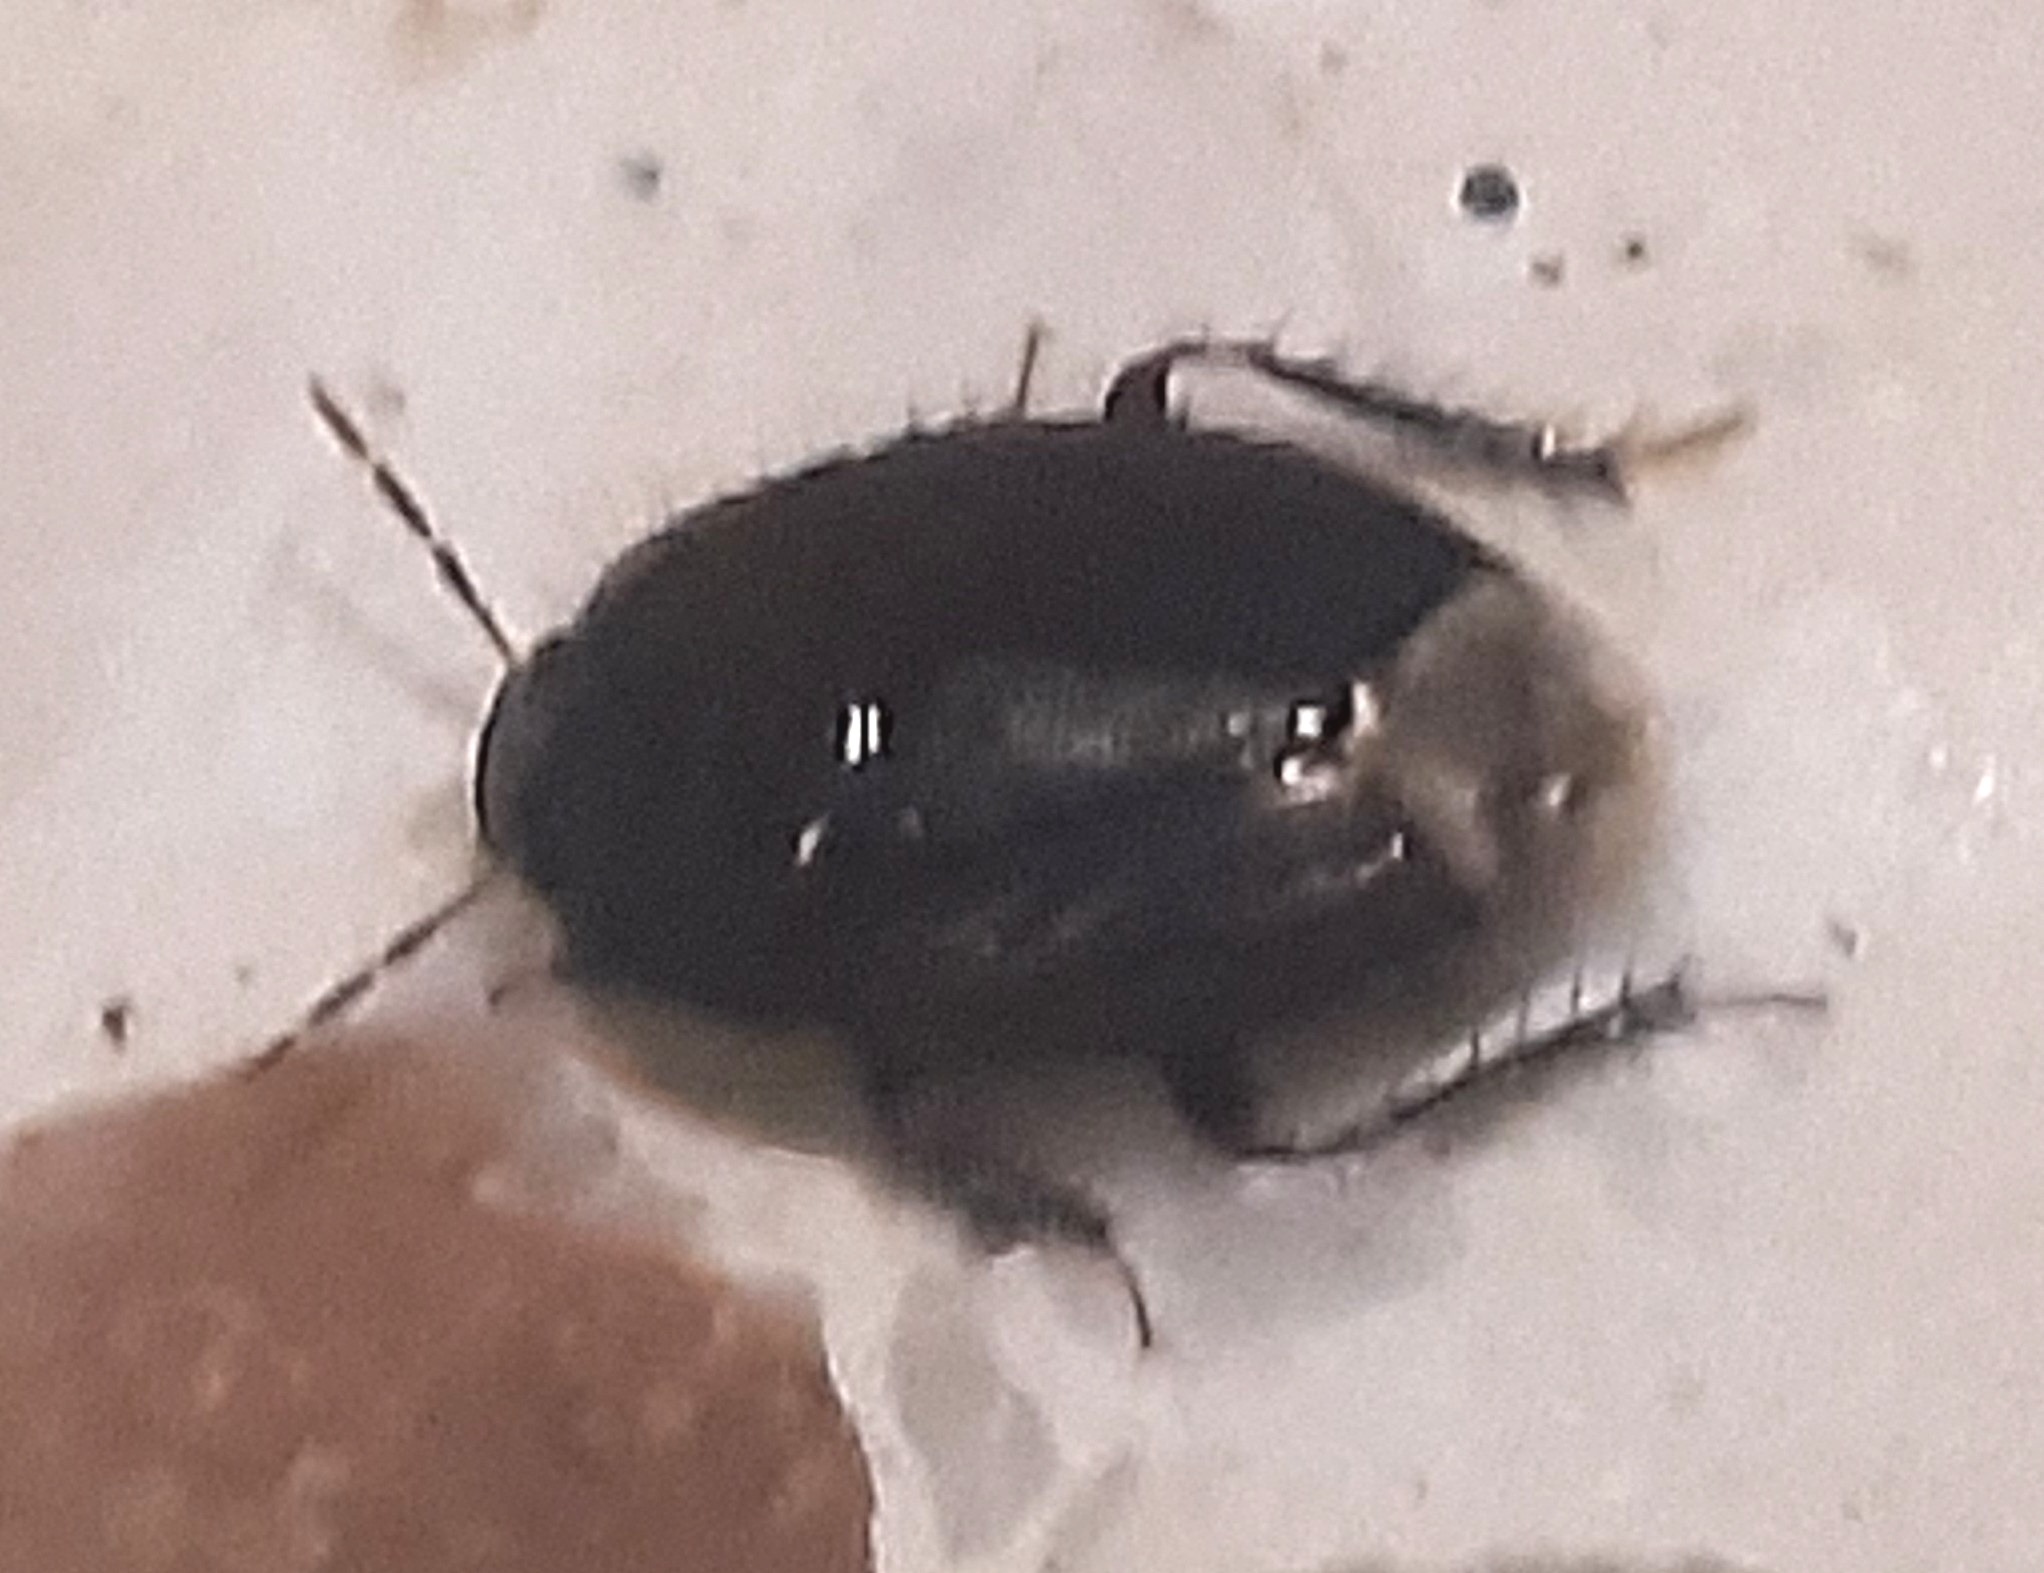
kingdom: Animalia
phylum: Arthropoda
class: Insecta
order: Hemiptera
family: Cydnidae
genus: Macroscytus
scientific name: Macroscytus brunneus
